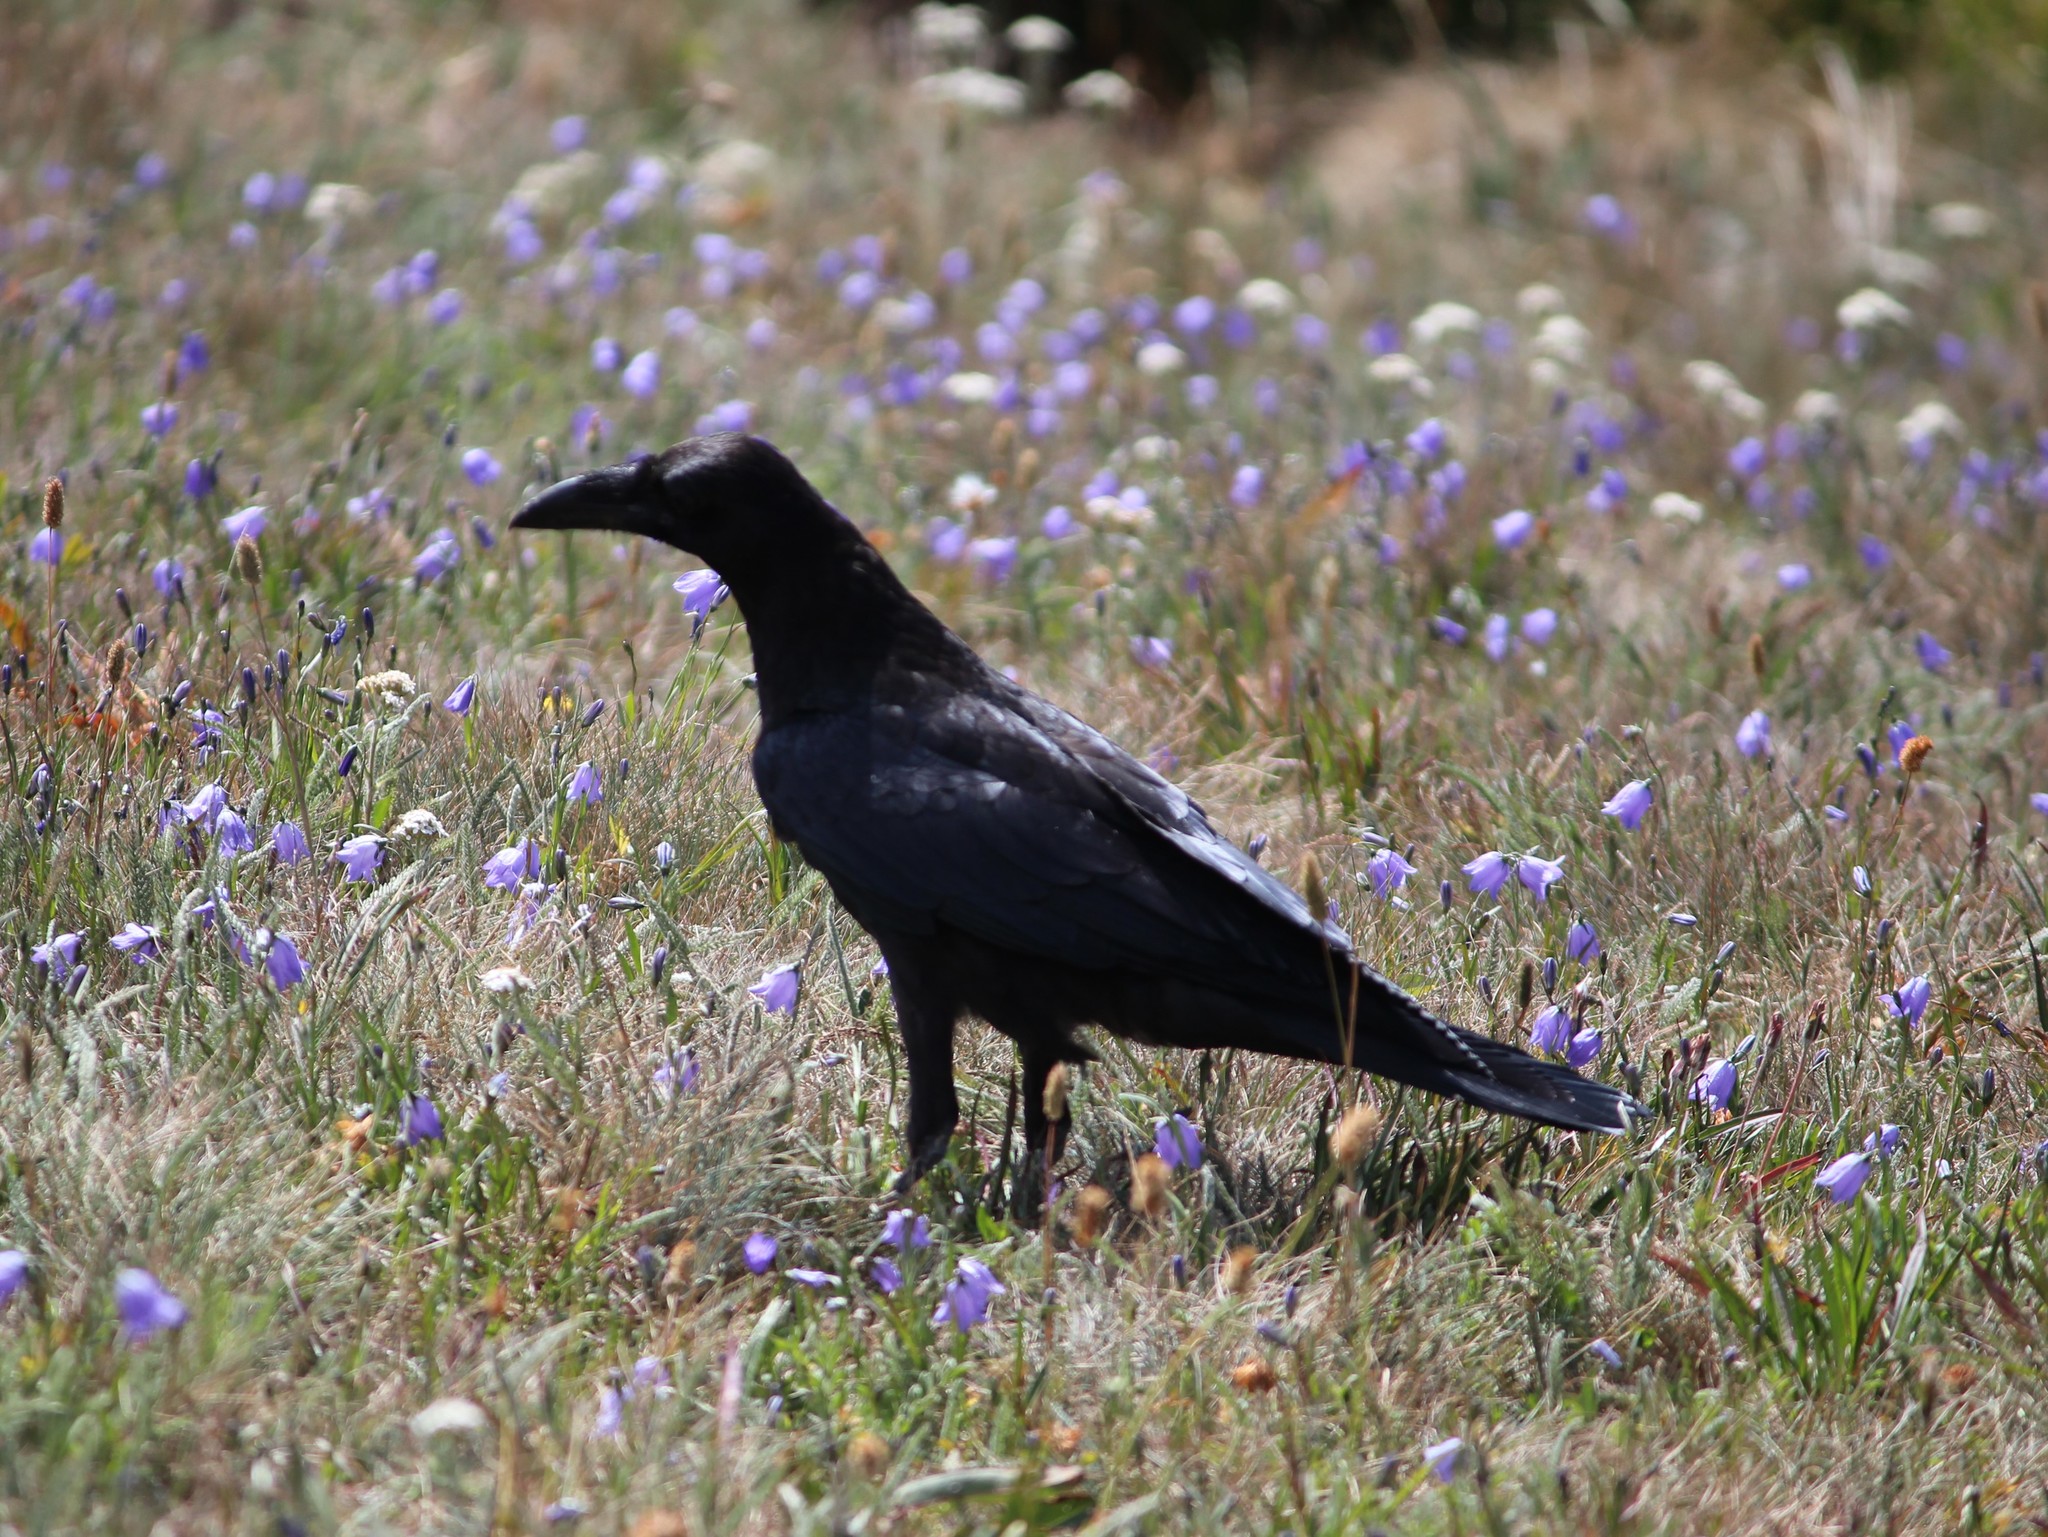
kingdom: Animalia
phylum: Chordata
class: Aves
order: Passeriformes
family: Corvidae
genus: Corvus
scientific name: Corvus corax
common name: Common raven
